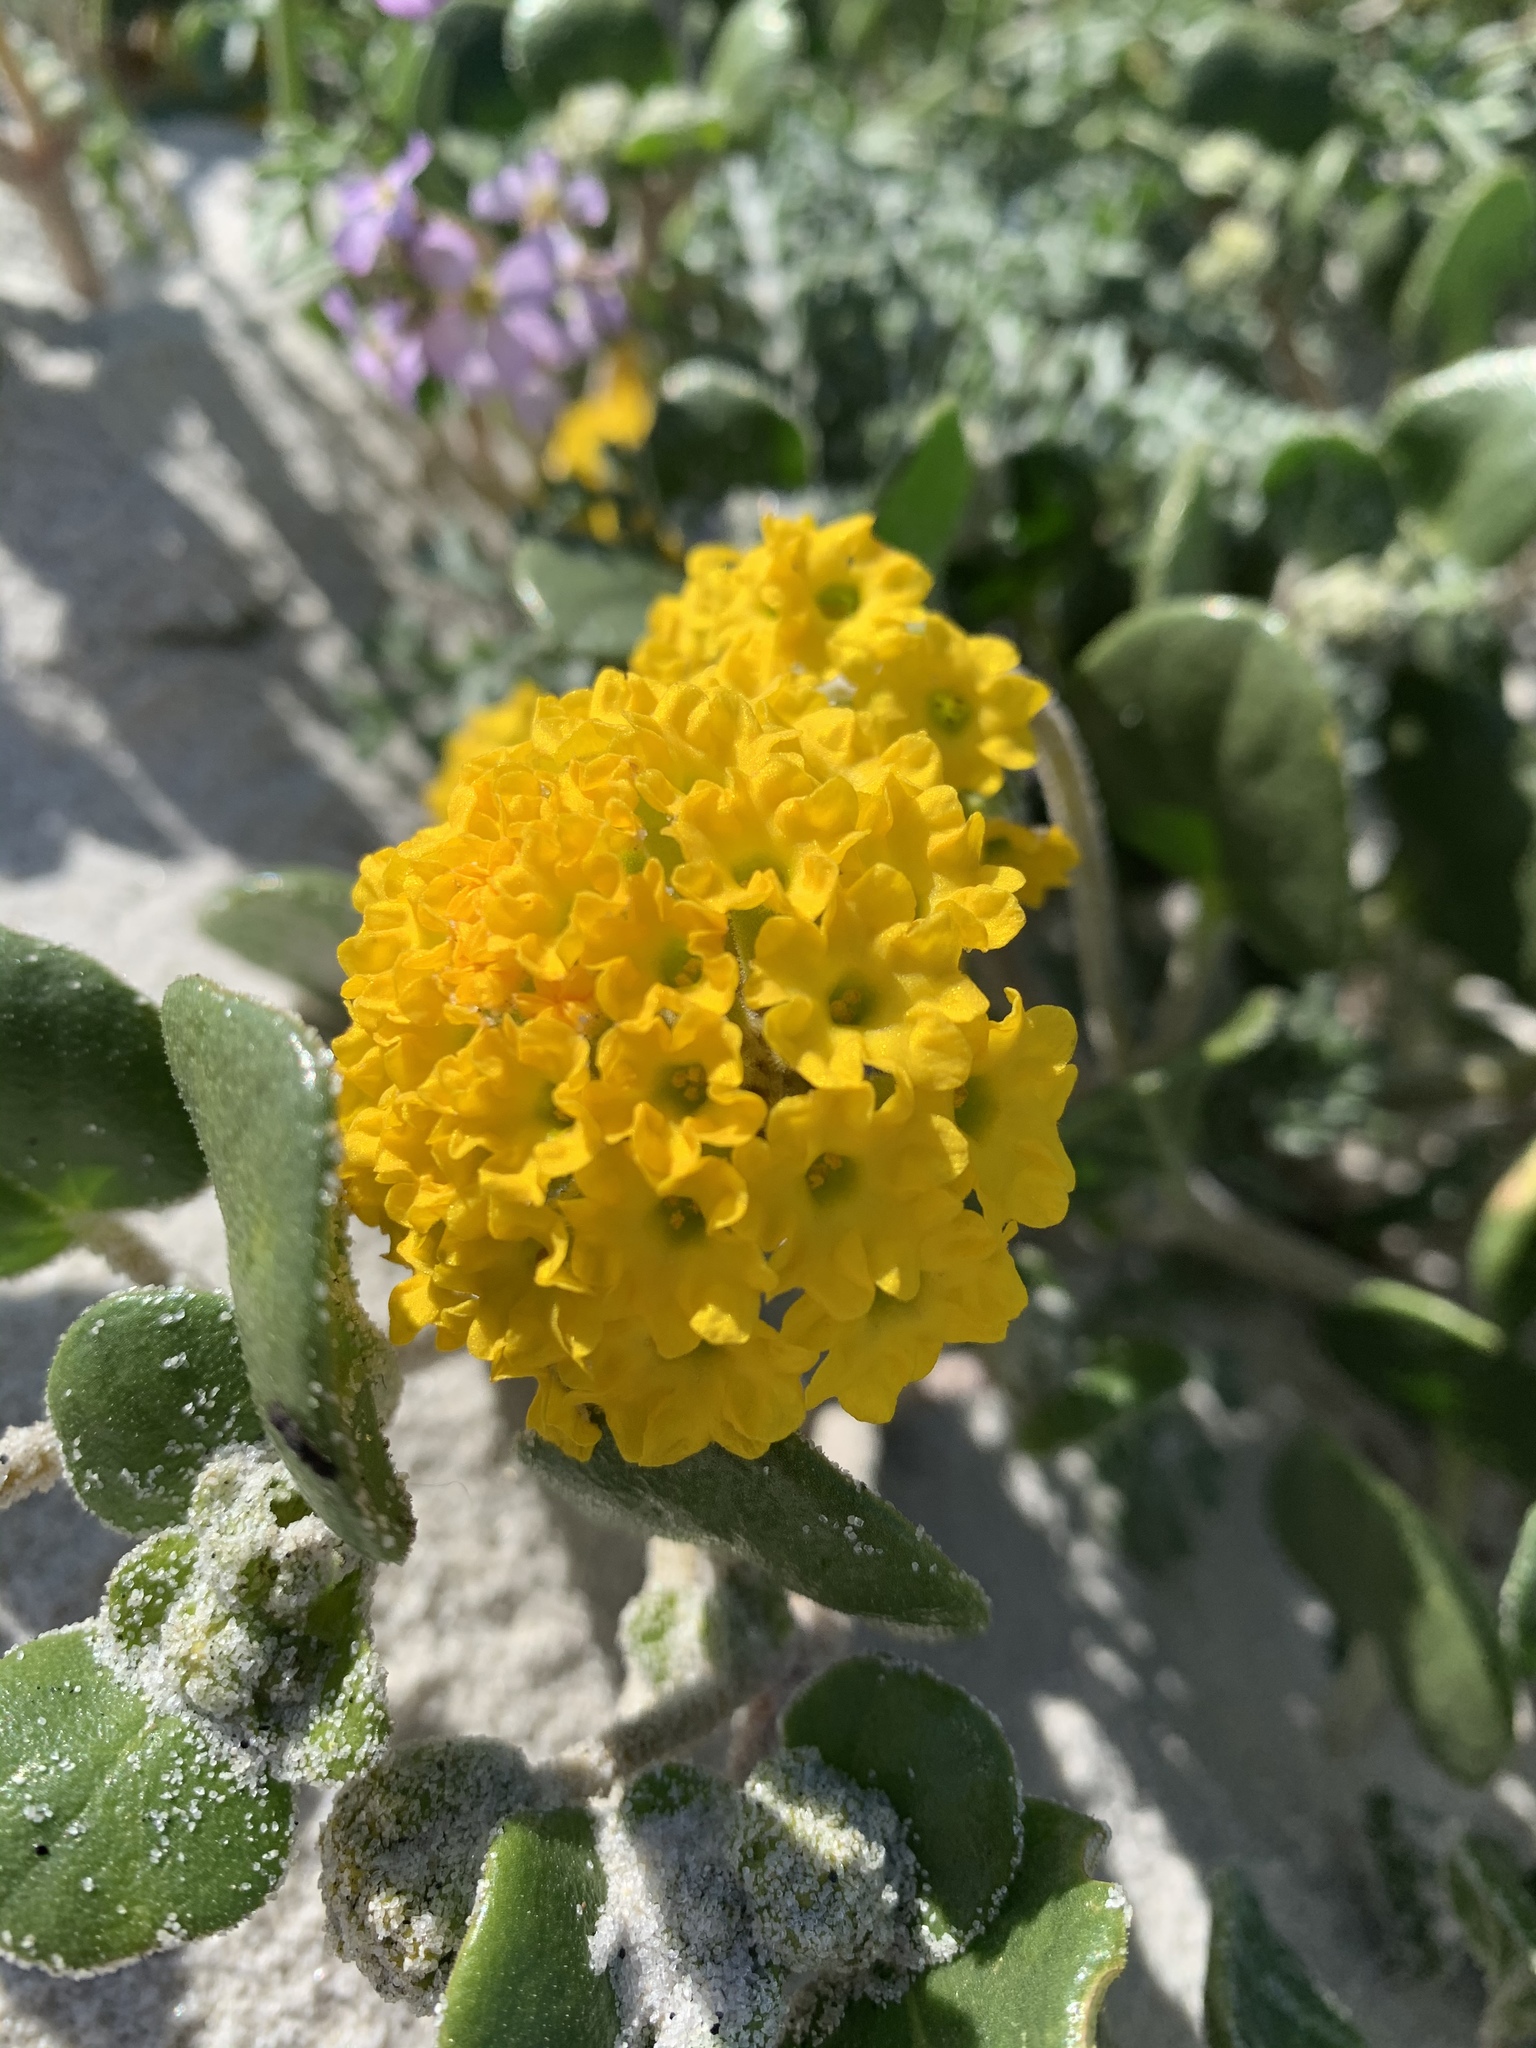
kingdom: Plantae
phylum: Tracheophyta
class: Magnoliopsida
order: Caryophyllales
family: Nyctaginaceae
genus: Abronia
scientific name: Abronia latifolia
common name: Yellow sand-verbena
